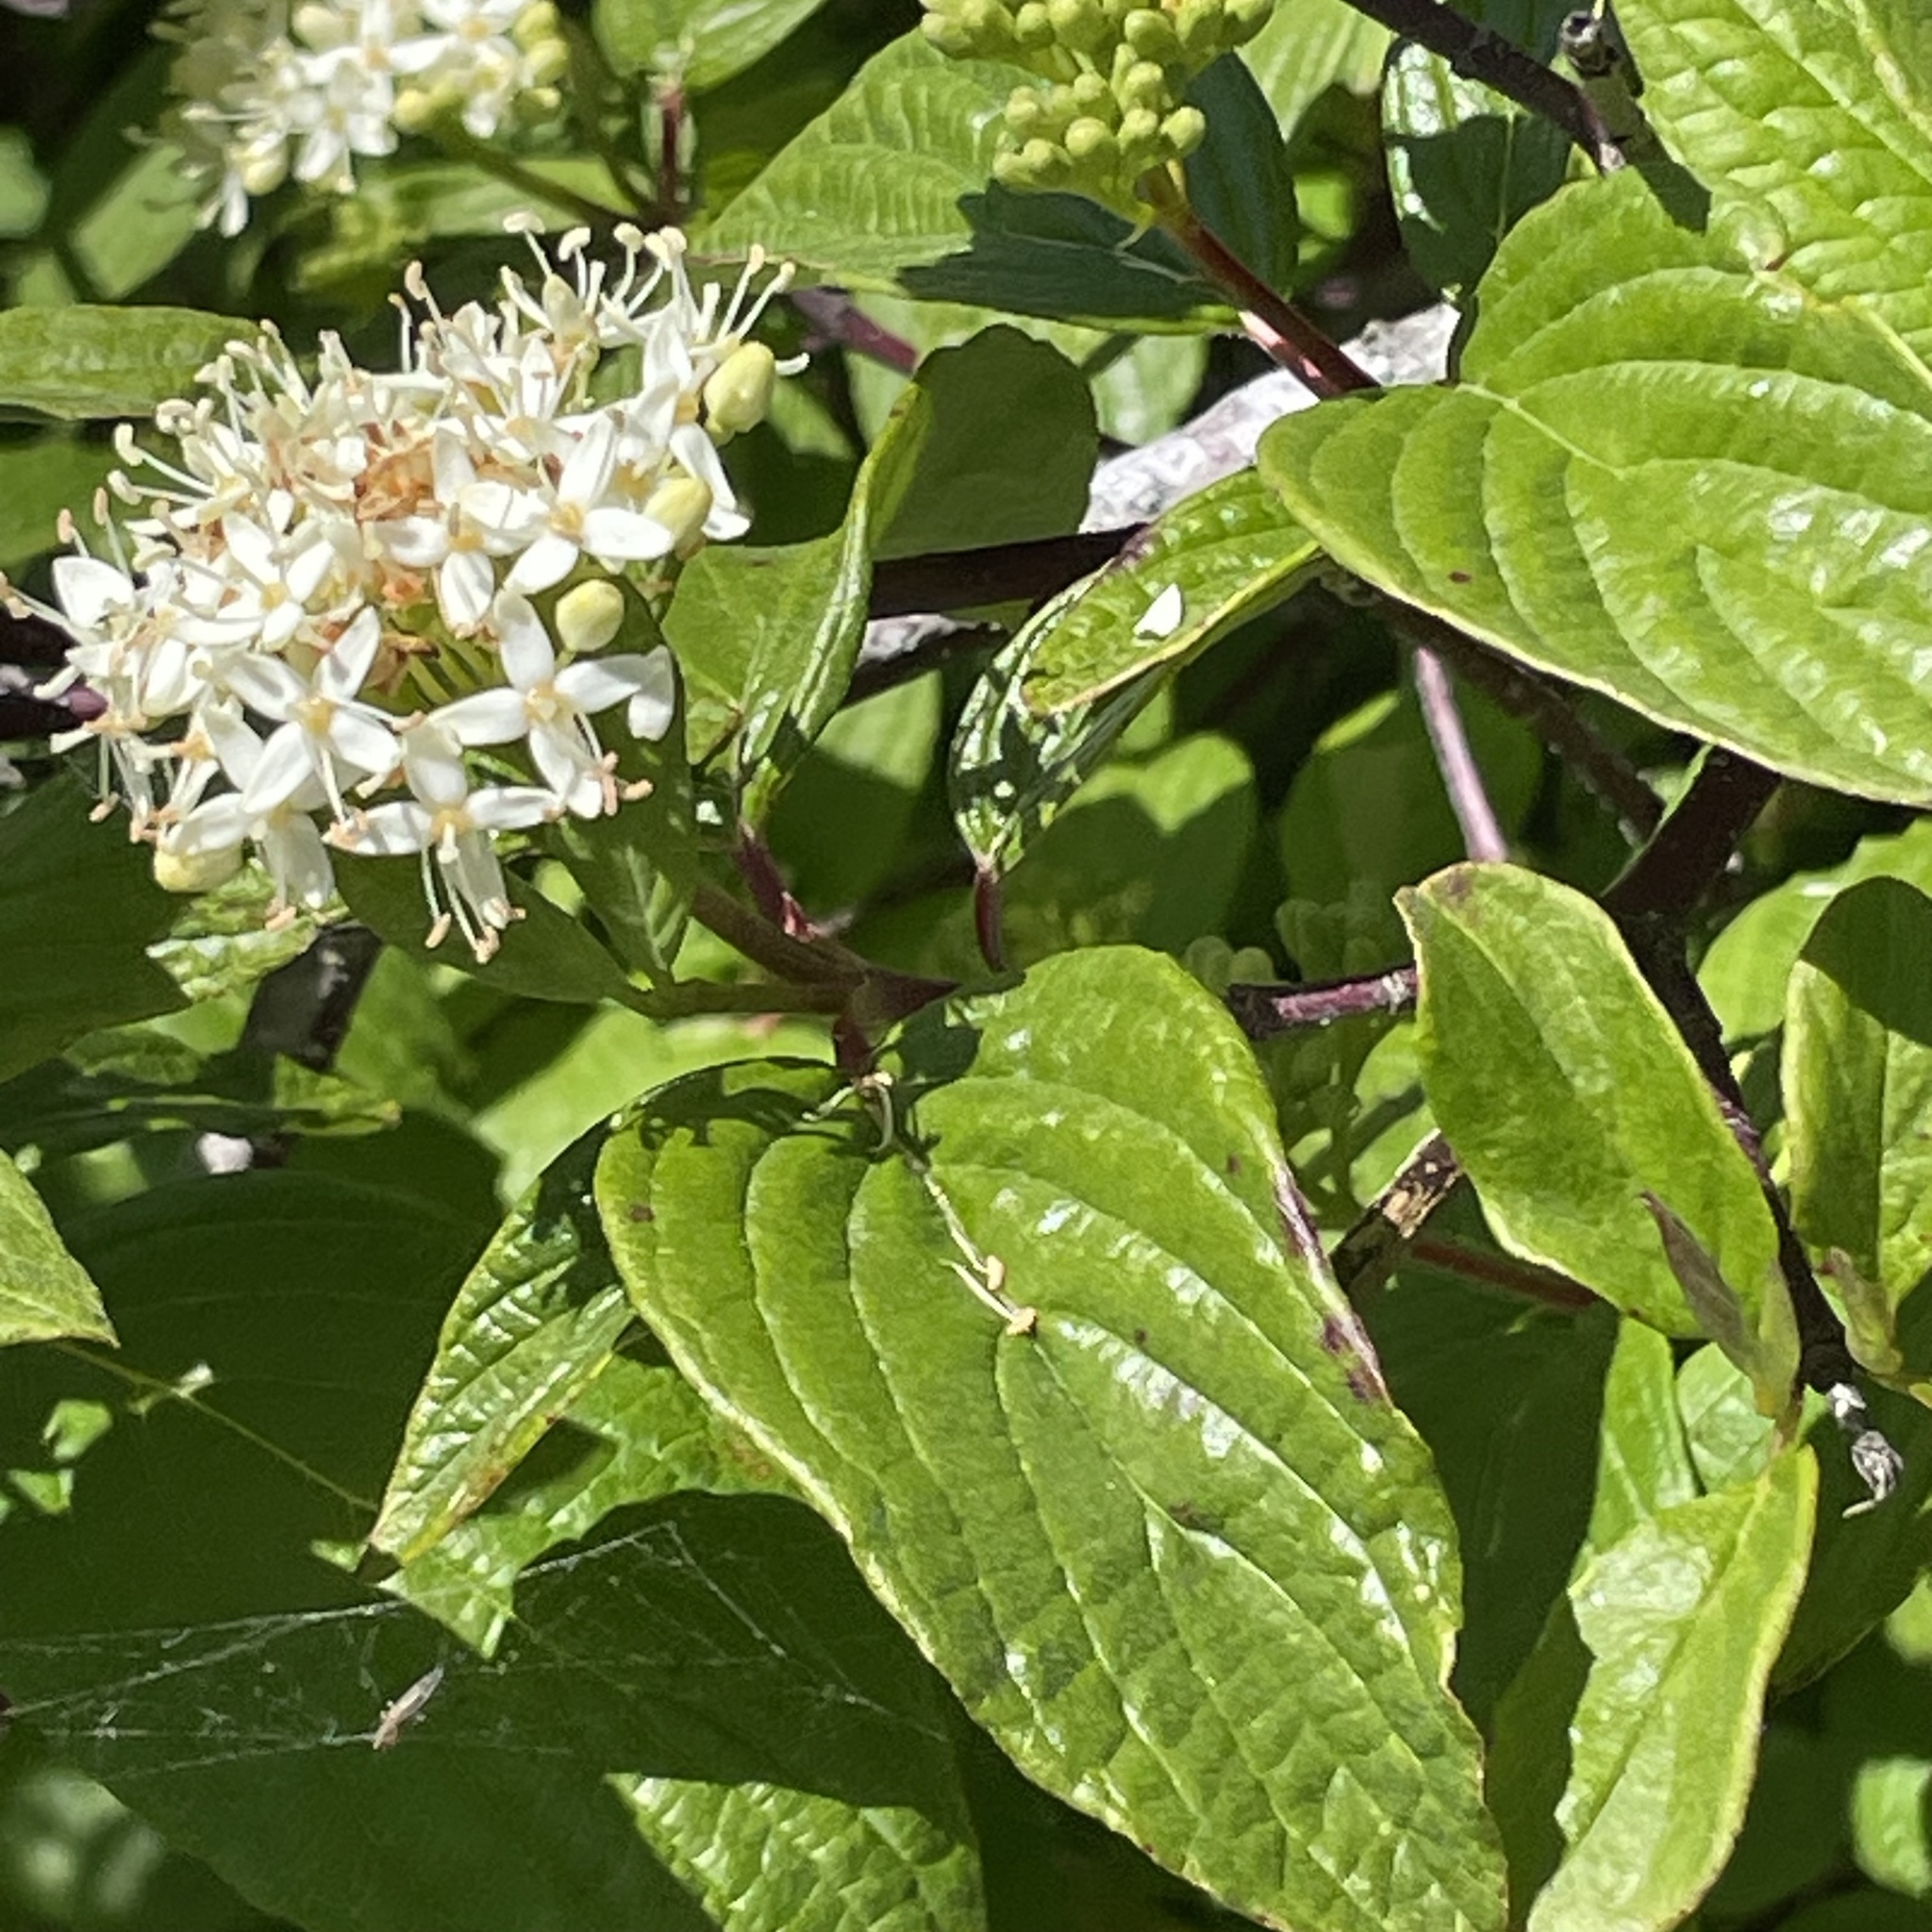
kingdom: Plantae
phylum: Tracheophyta
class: Magnoliopsida
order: Cornales
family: Cornaceae
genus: Cornus
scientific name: Cornus sericea
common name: Red-osier dogwood
